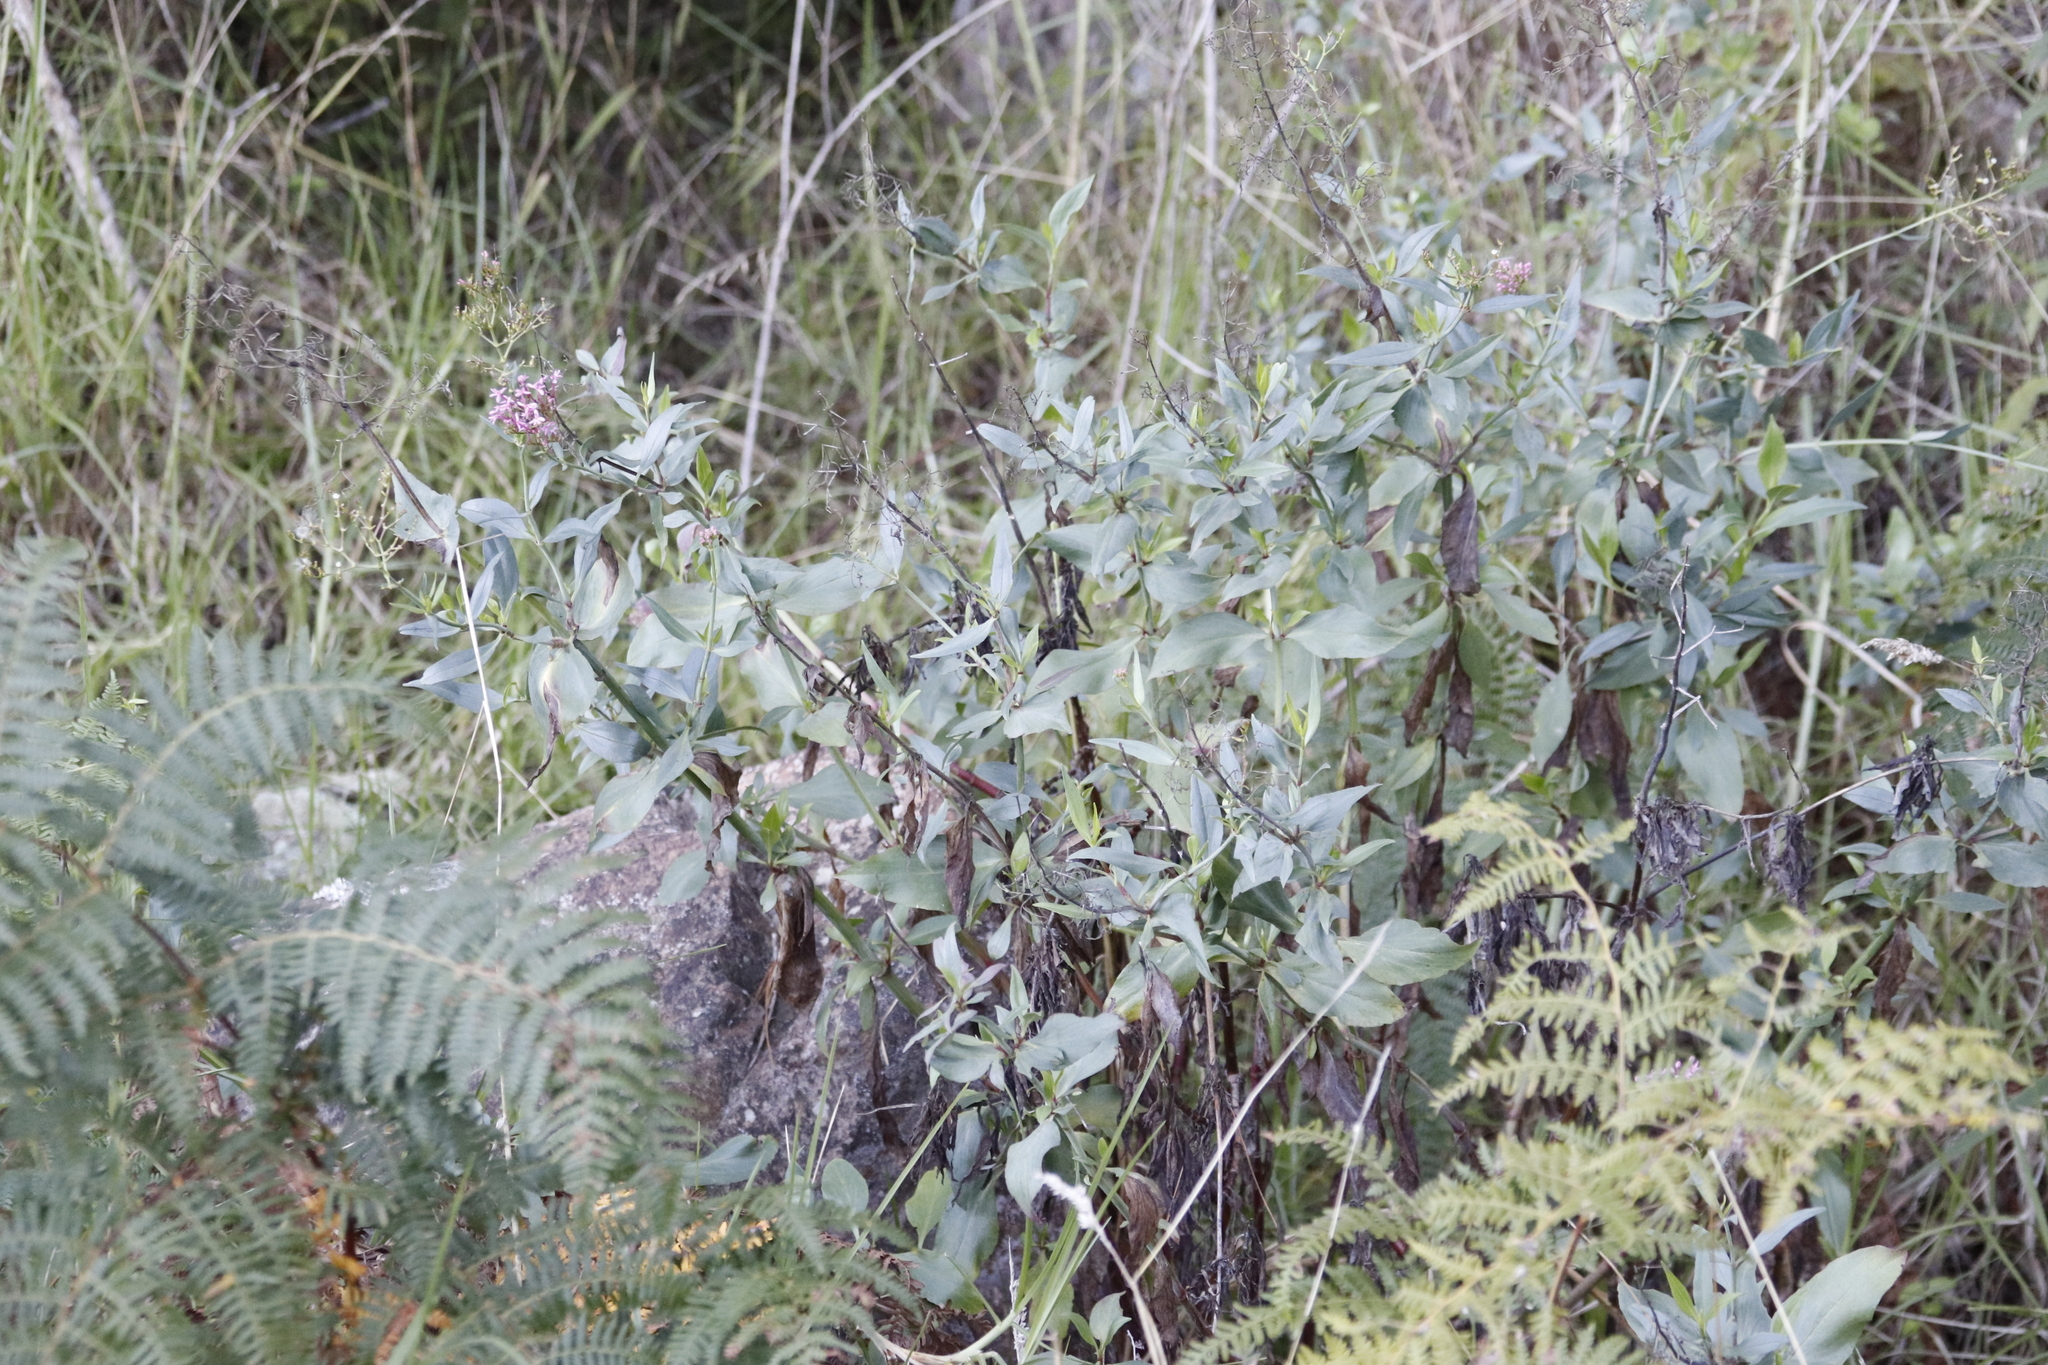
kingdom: Plantae
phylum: Tracheophyta
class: Magnoliopsida
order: Dipsacales
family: Caprifoliaceae
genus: Centranthus
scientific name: Centranthus ruber
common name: Red valerian
